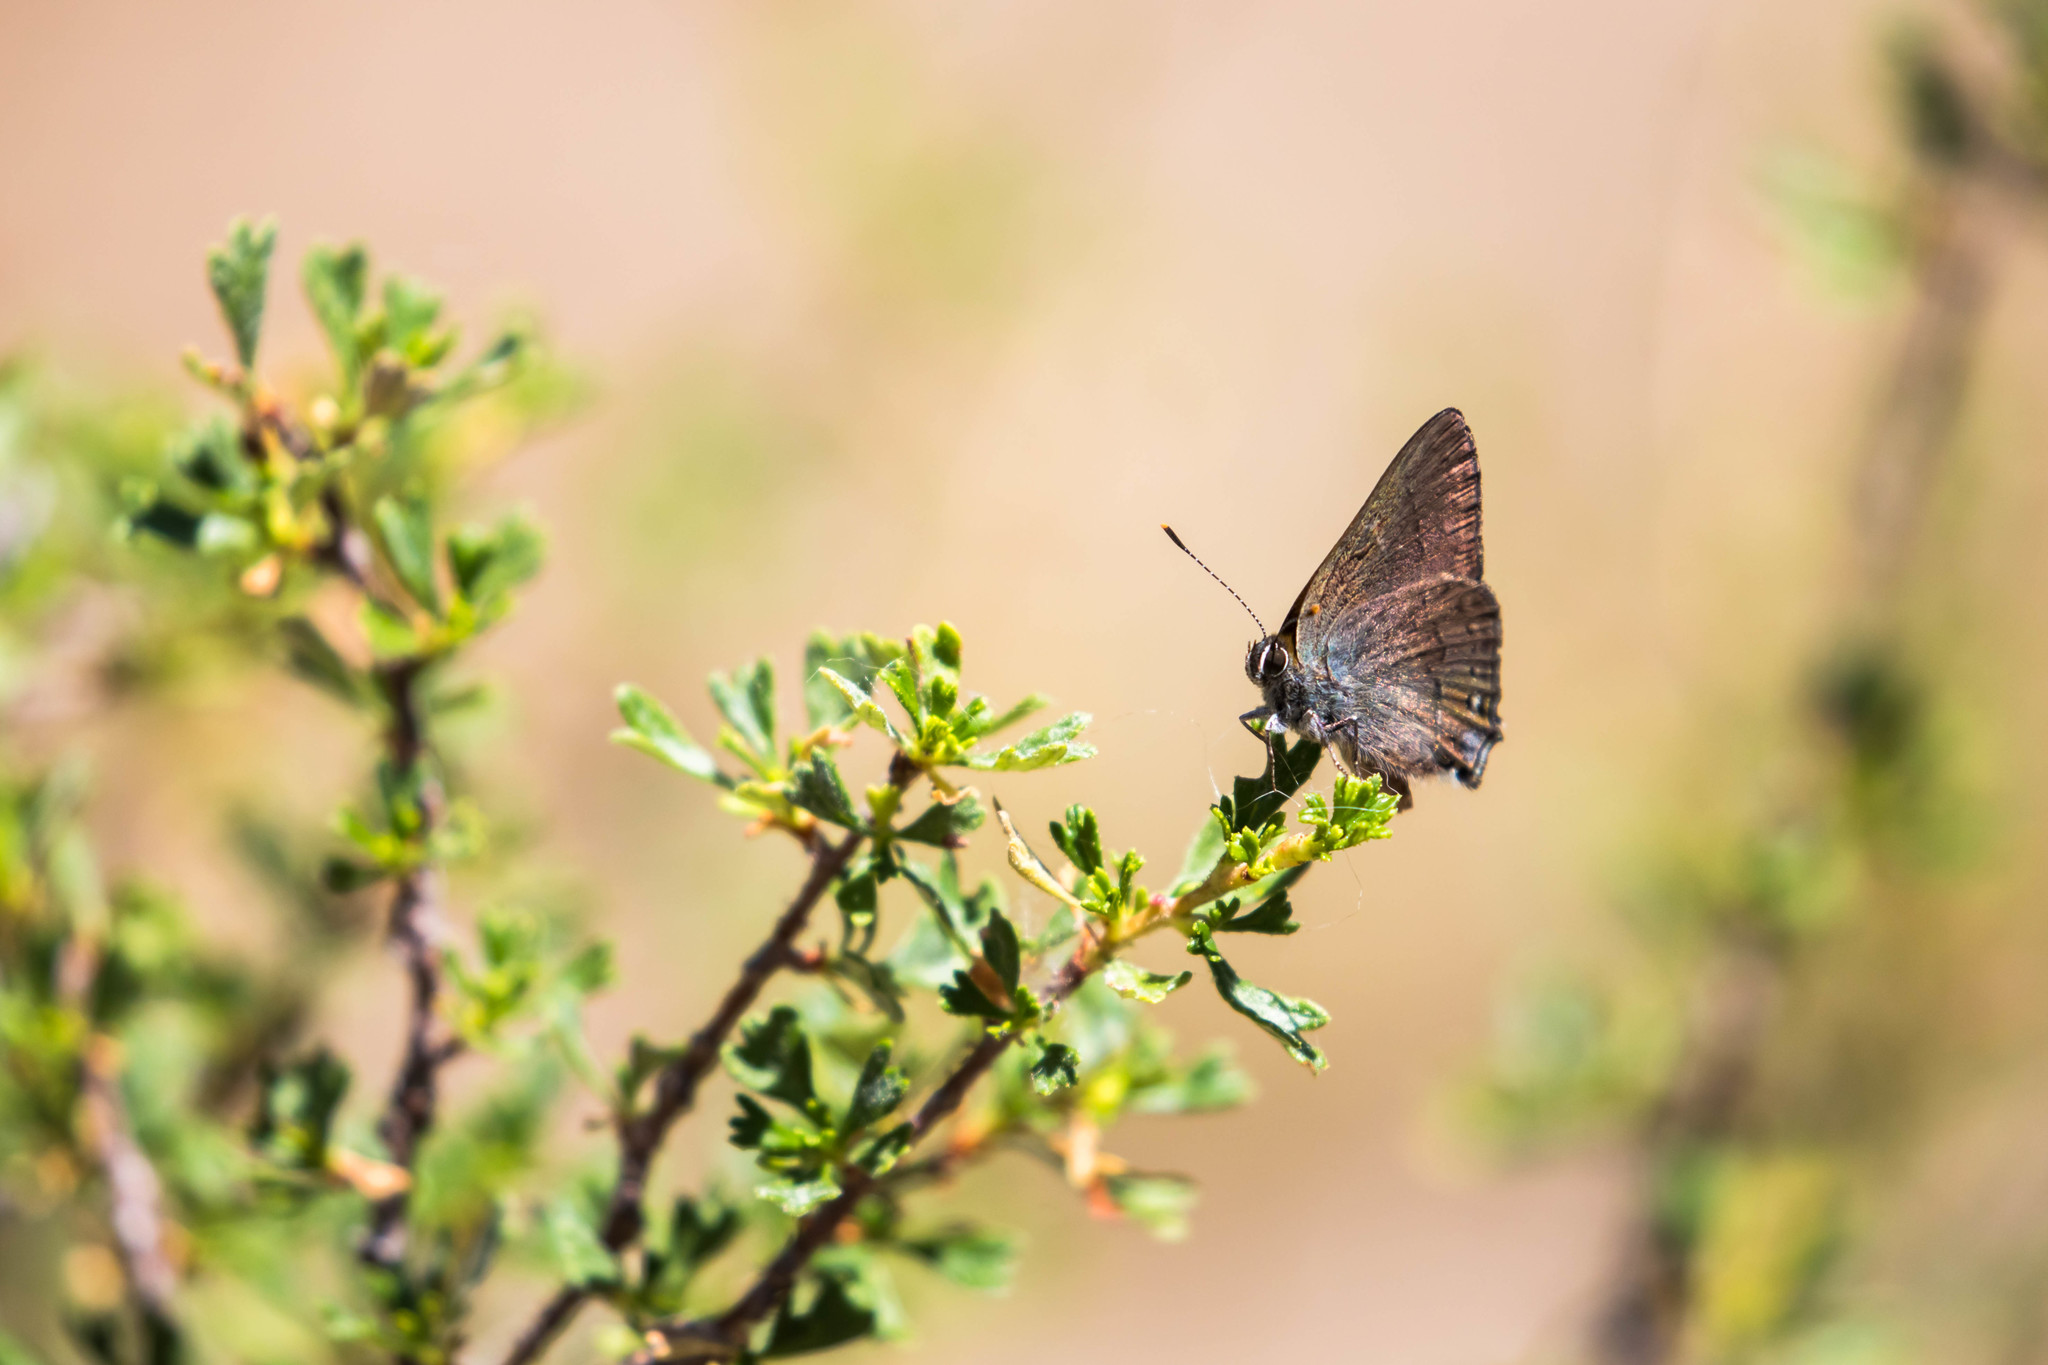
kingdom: Animalia
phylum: Arthropoda
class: Insecta
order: Lepidoptera
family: Lycaenidae
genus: Strymon
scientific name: Strymon saepium
